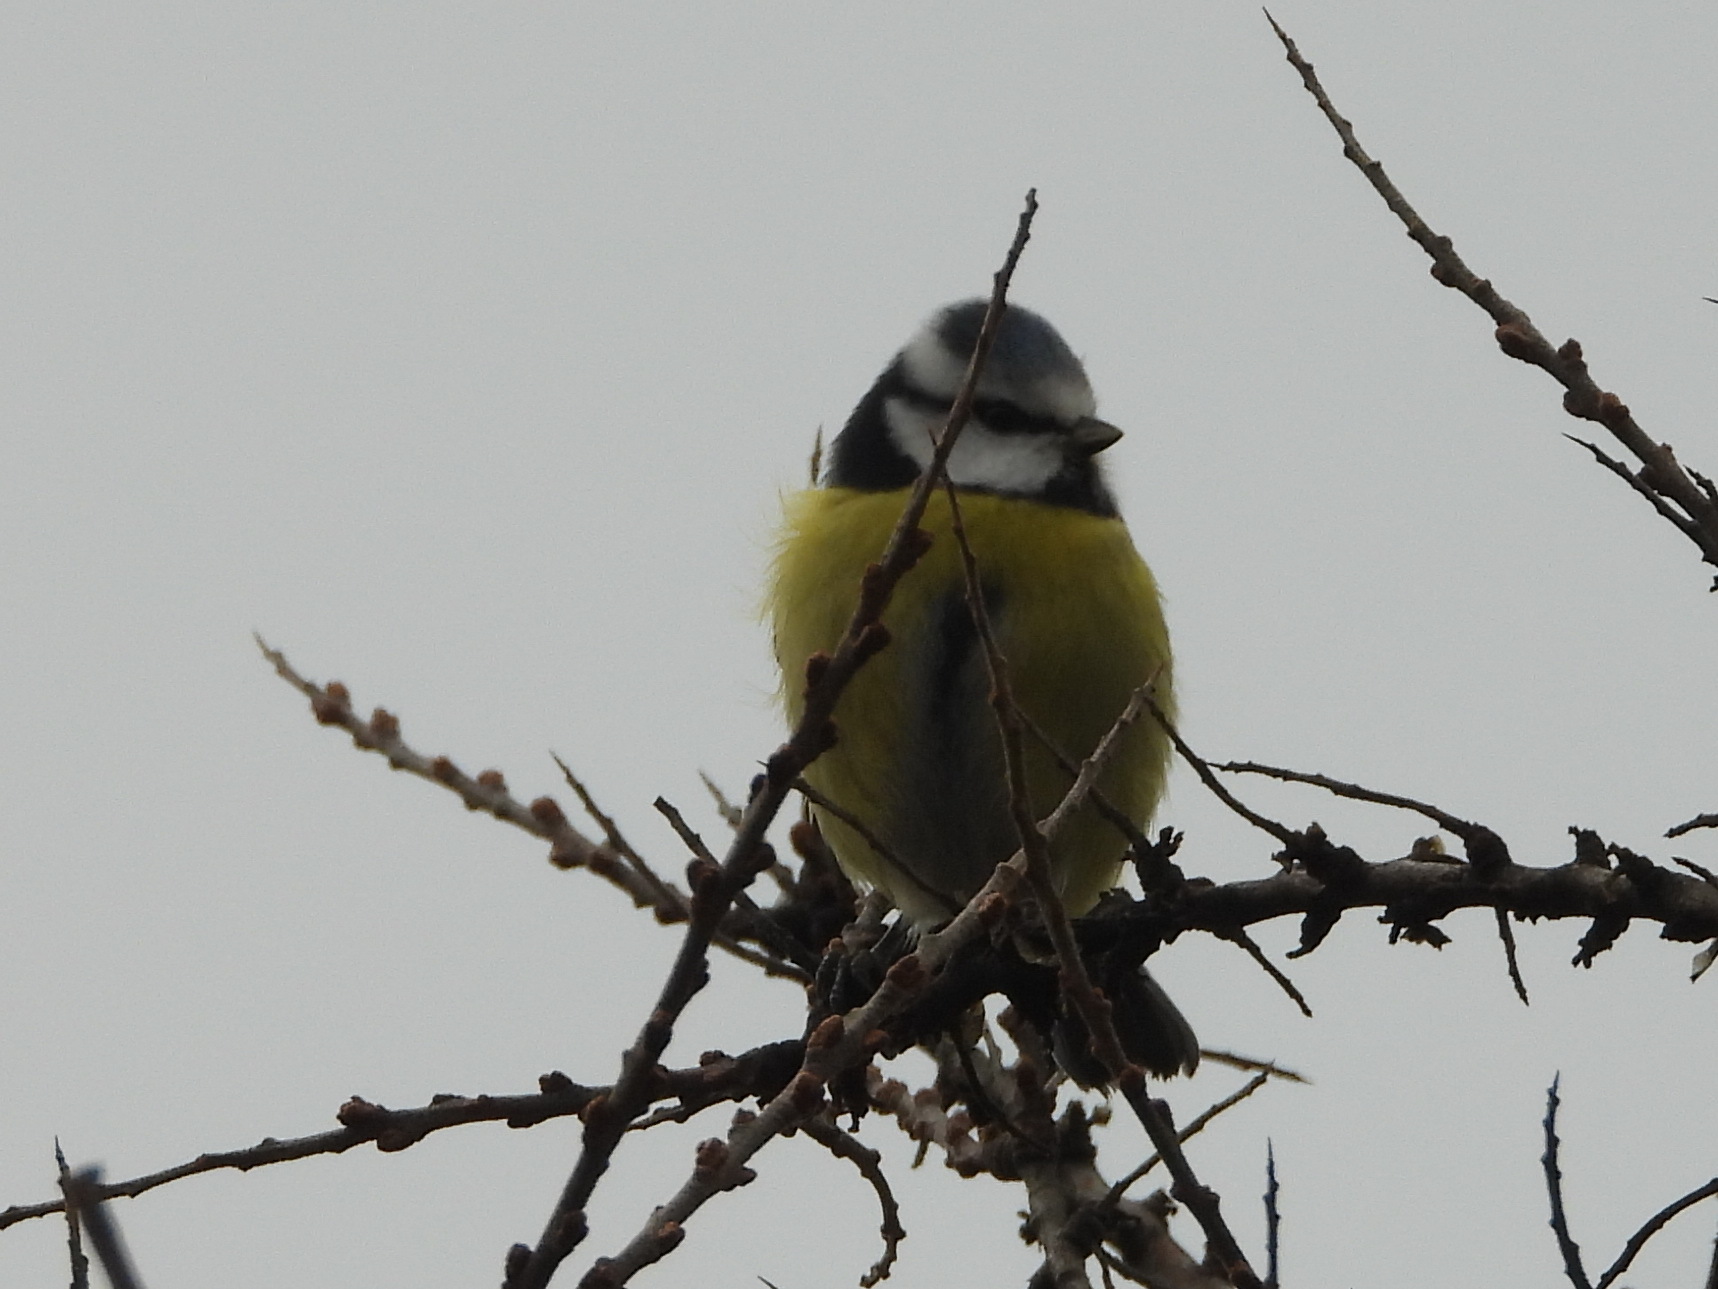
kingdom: Animalia
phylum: Chordata
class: Aves
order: Passeriformes
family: Paridae
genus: Cyanistes
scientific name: Cyanistes caeruleus
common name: Eurasian blue tit
